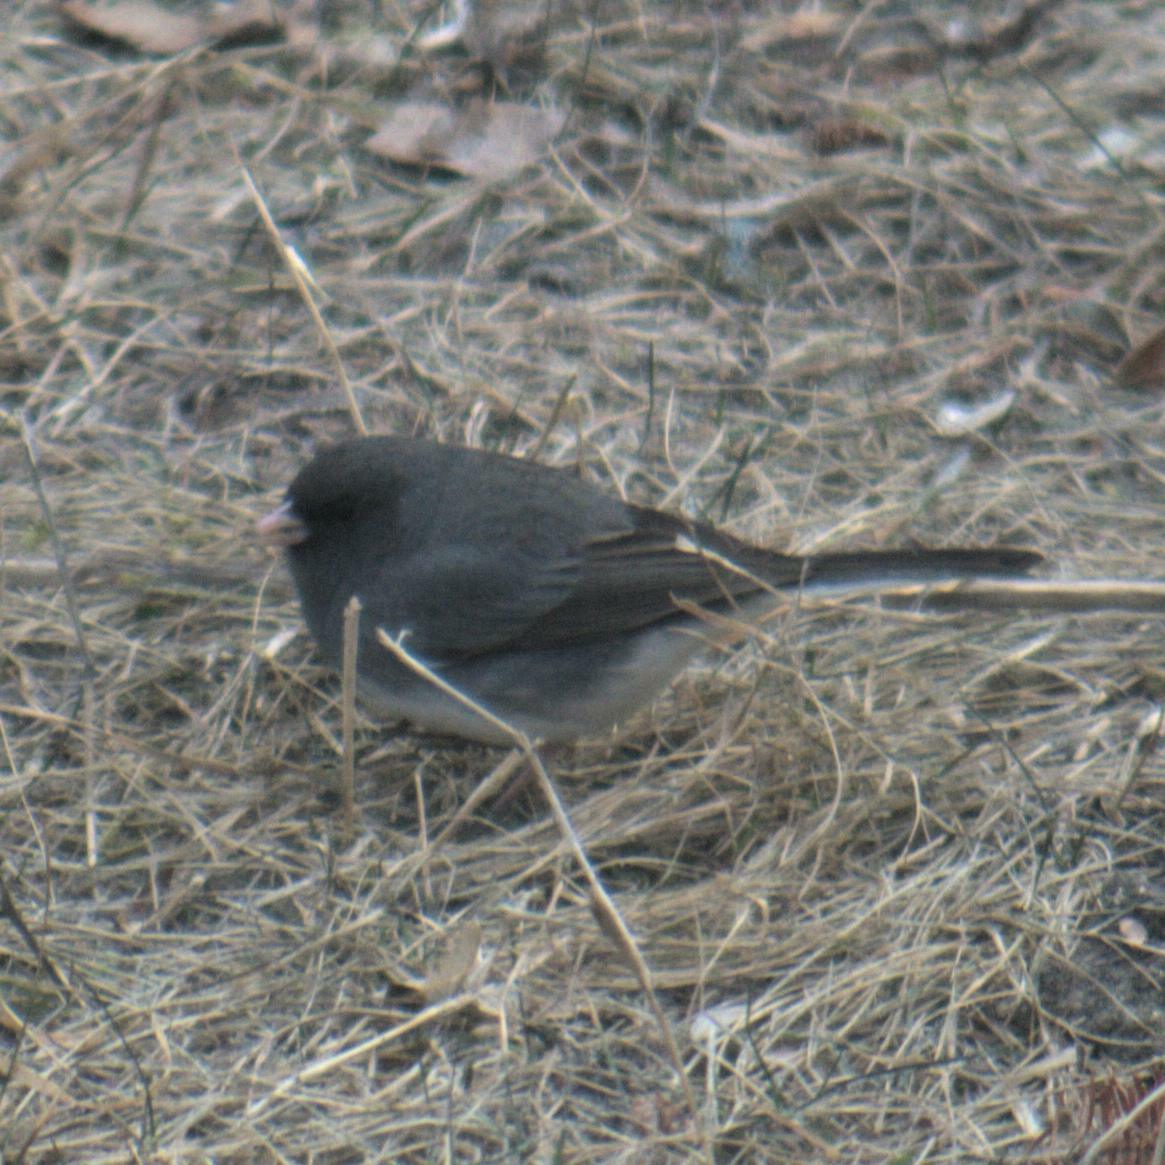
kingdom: Animalia
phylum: Chordata
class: Aves
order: Passeriformes
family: Passerellidae
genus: Junco
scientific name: Junco hyemalis
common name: Dark-eyed junco
